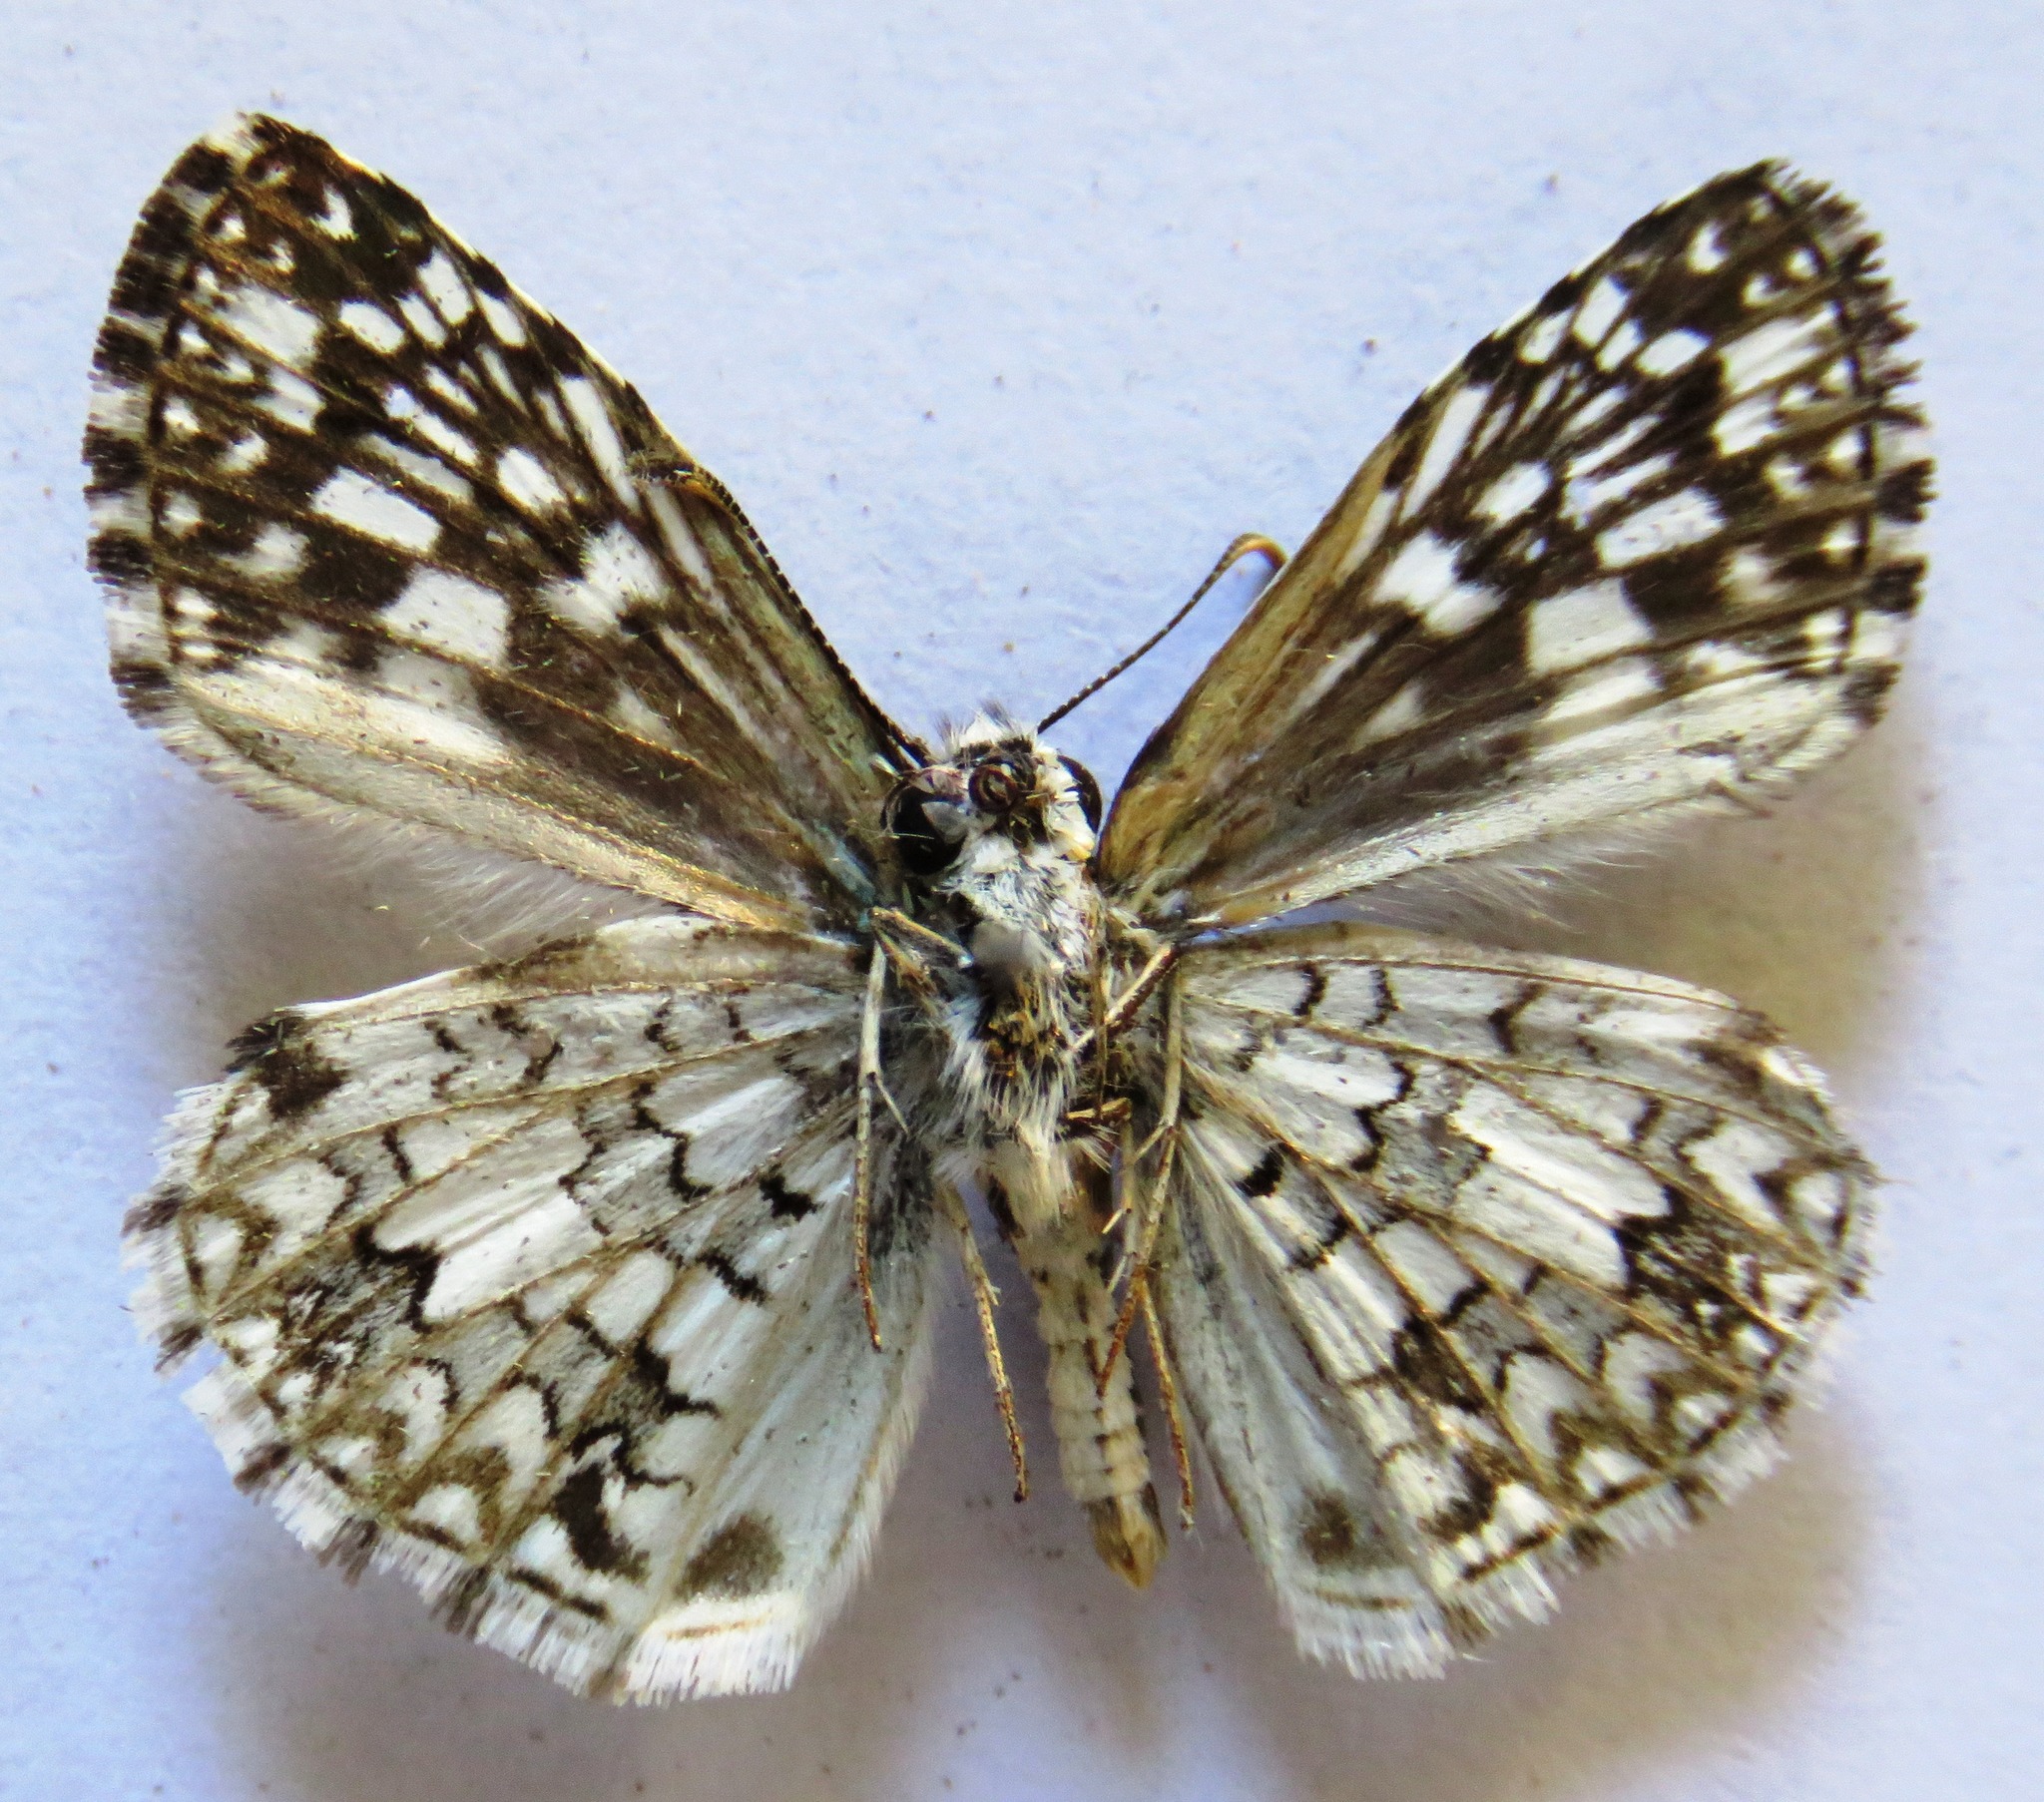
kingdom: Animalia
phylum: Arthropoda
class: Insecta
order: Lepidoptera
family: Hesperiidae
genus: Pyrgus
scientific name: Pyrgus oileus
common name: Tropical checkered-skipper
